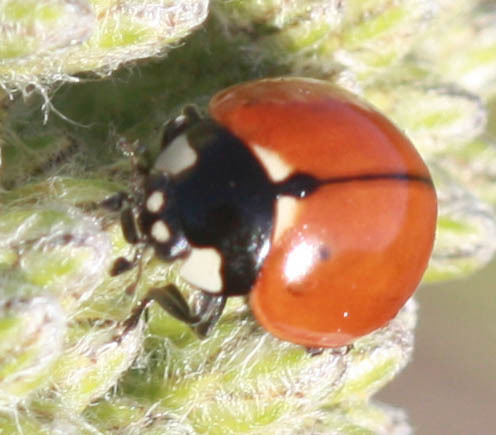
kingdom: Animalia
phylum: Arthropoda
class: Insecta
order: Coleoptera
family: Coccinellidae
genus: Coccinella
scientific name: Coccinella californica
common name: Lady beetle
